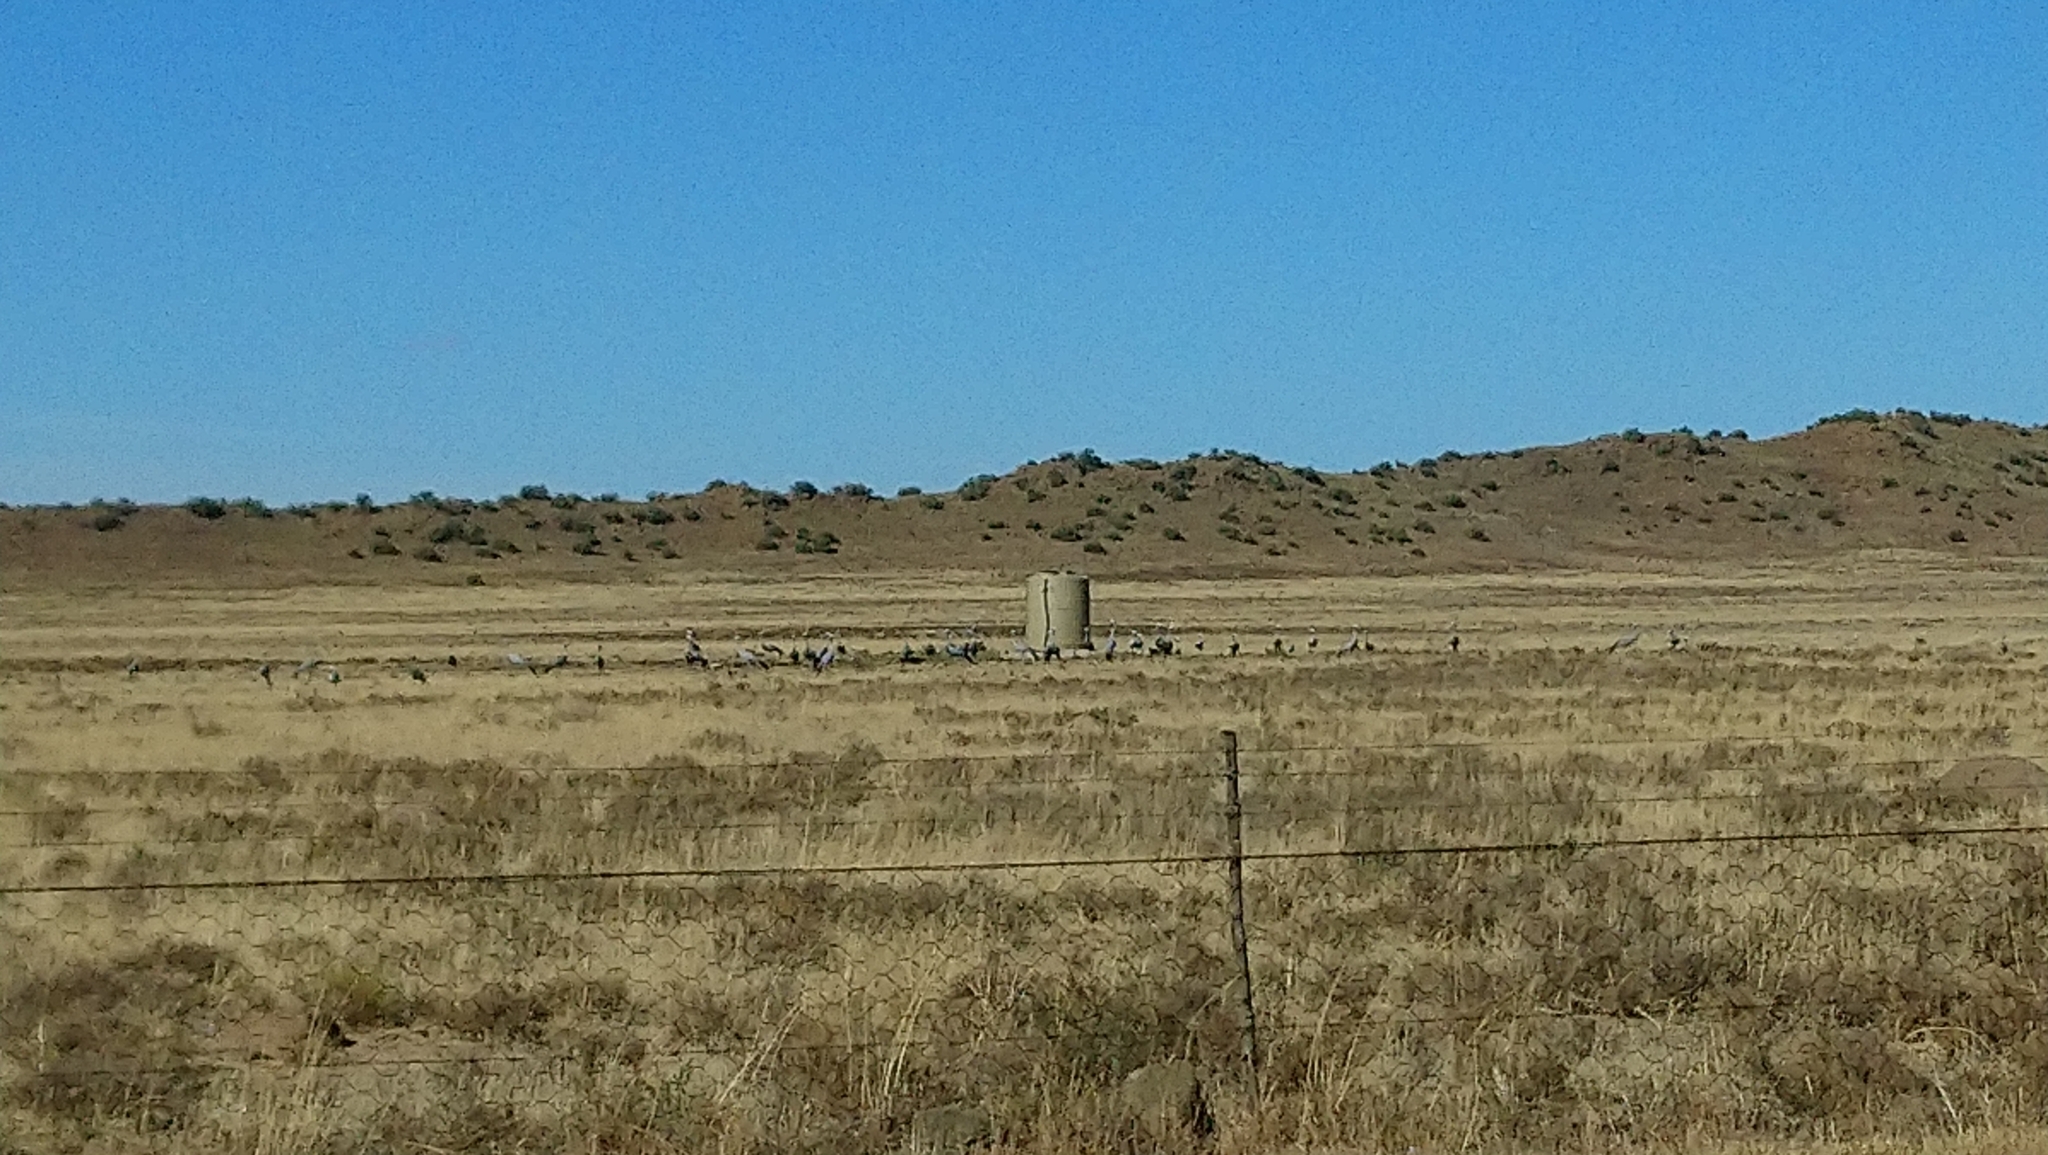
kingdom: Animalia
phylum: Chordata
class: Aves
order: Gruiformes
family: Gruidae
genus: Anthropoides
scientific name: Anthropoides paradiseus
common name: Blue crane
